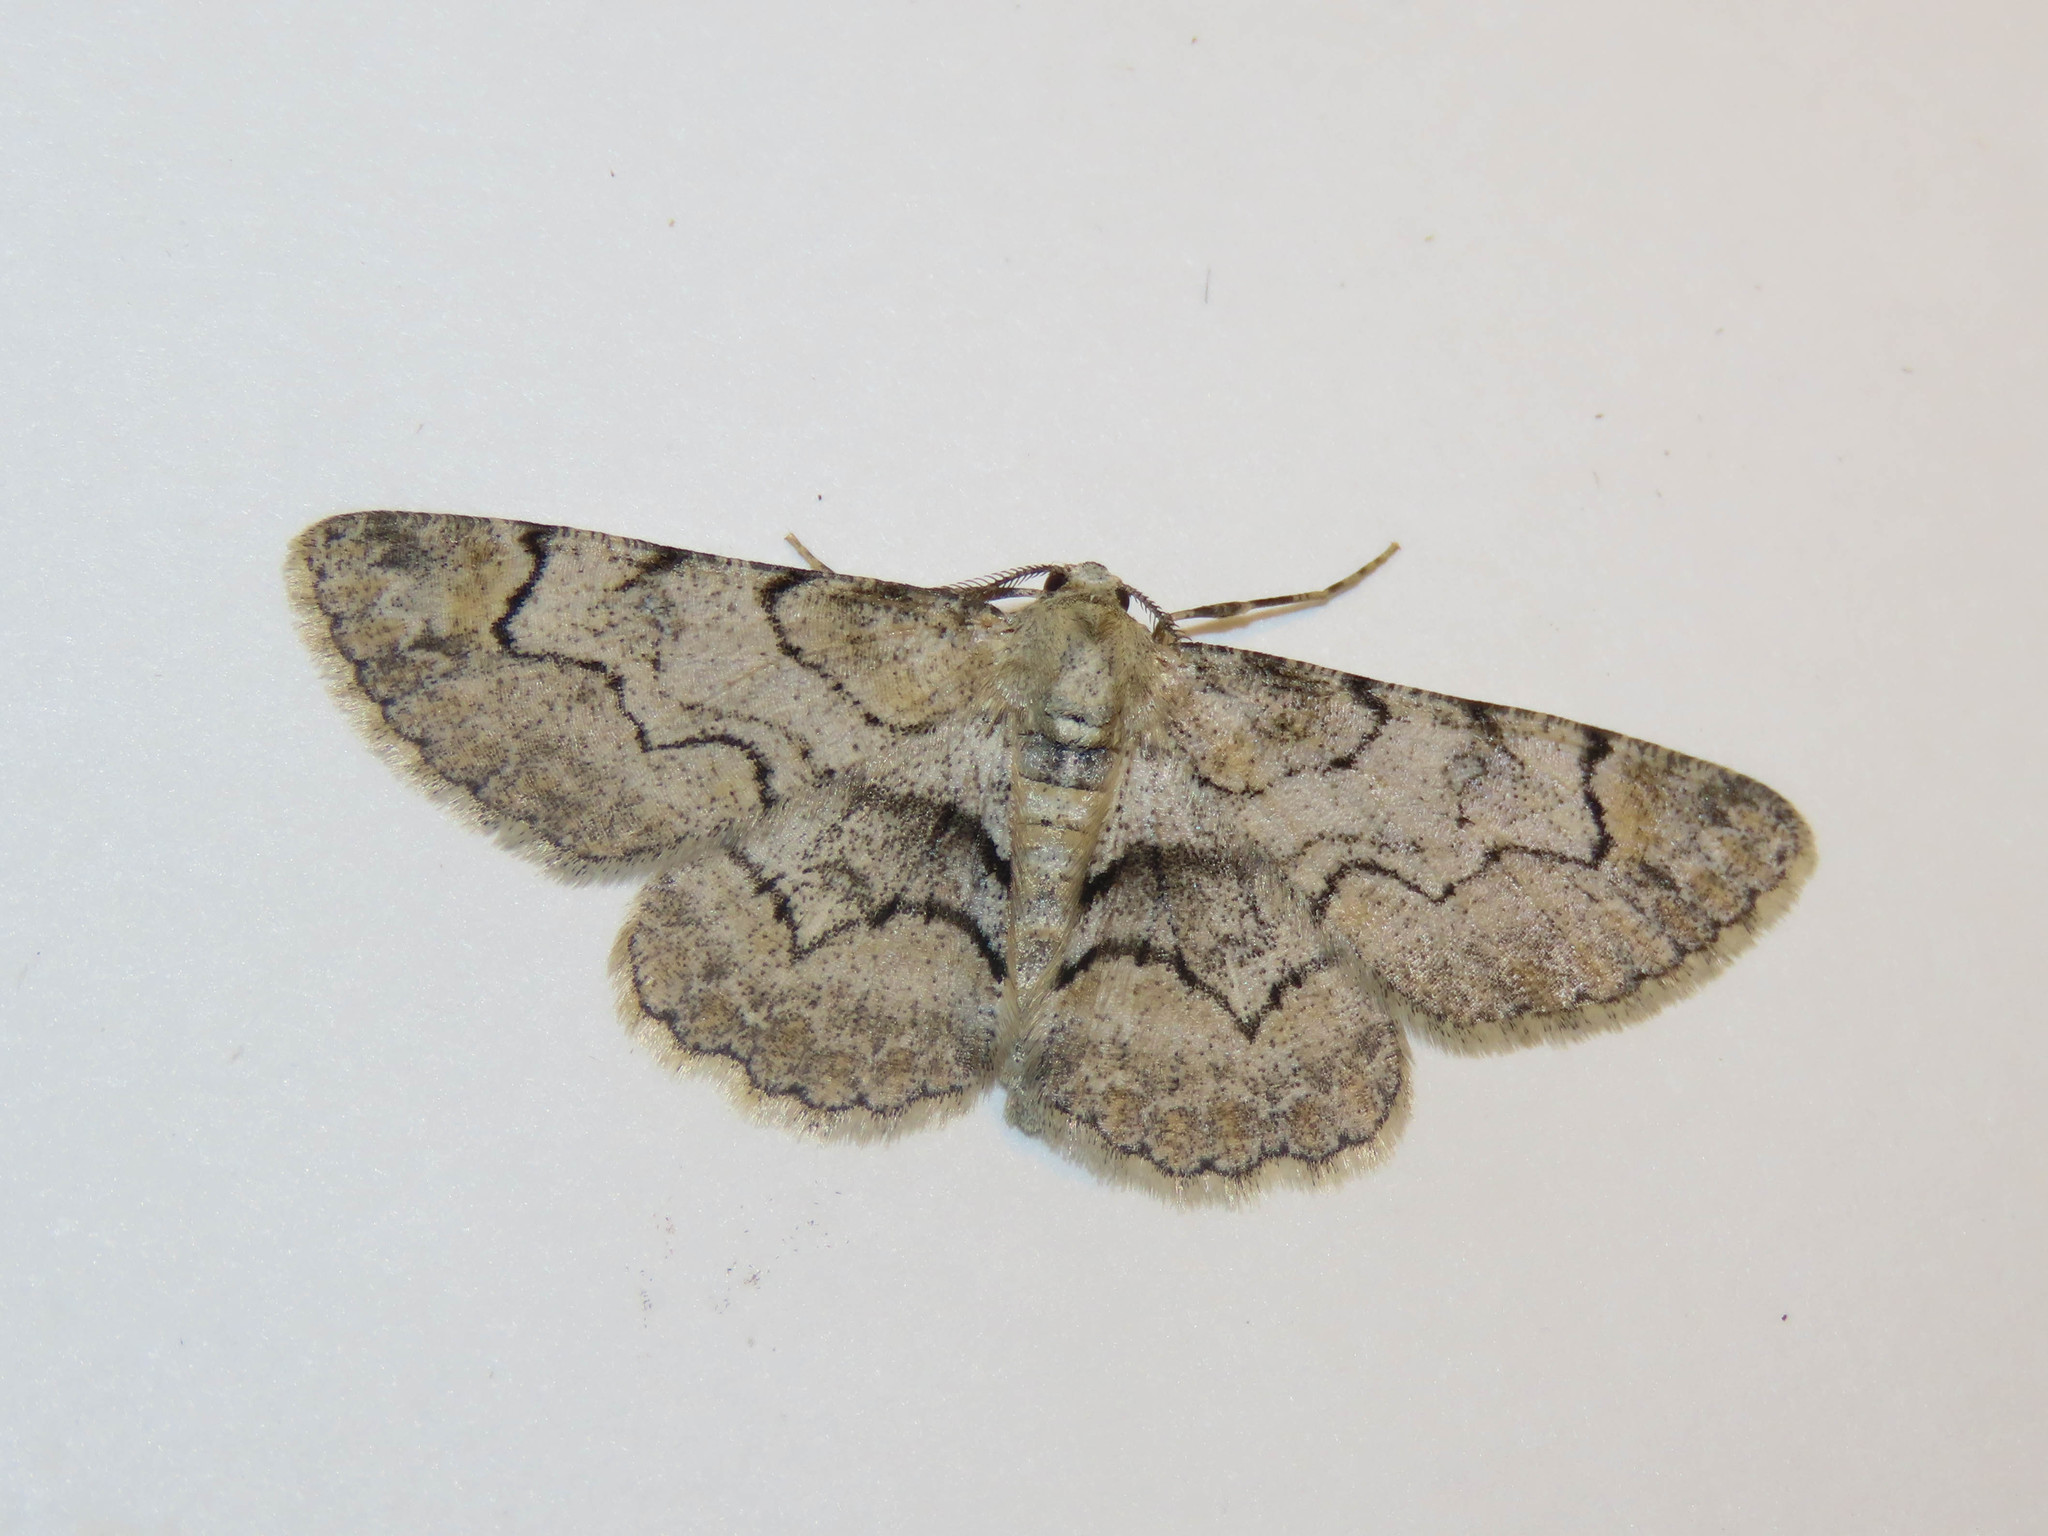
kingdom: Animalia
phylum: Arthropoda
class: Insecta
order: Lepidoptera
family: Geometridae
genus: Iridopsis
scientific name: Iridopsis larvaria
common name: Bent-line gray
